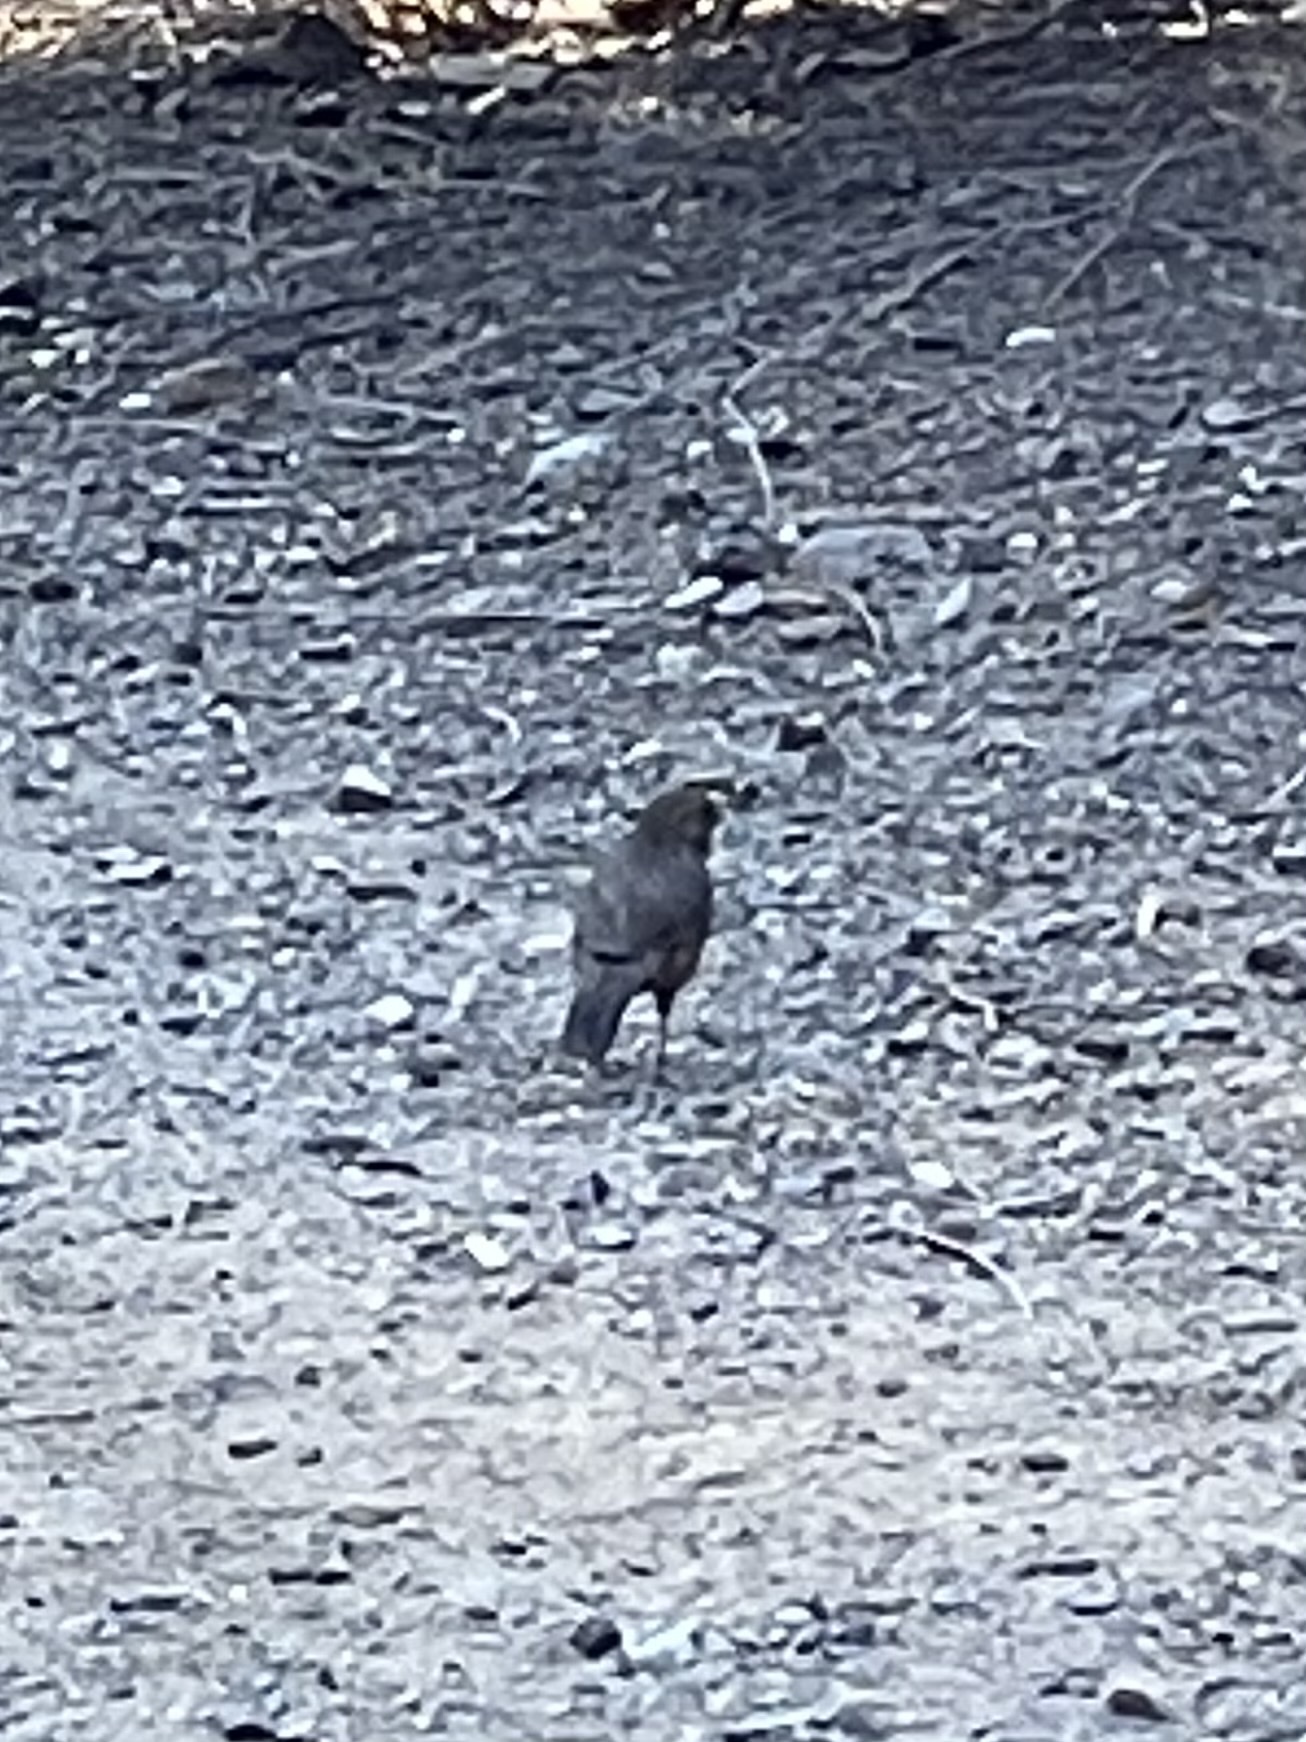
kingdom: Animalia
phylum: Chordata
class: Aves
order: Passeriformes
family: Passerellidae
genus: Melozone
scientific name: Melozone crissalis
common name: California towhee
